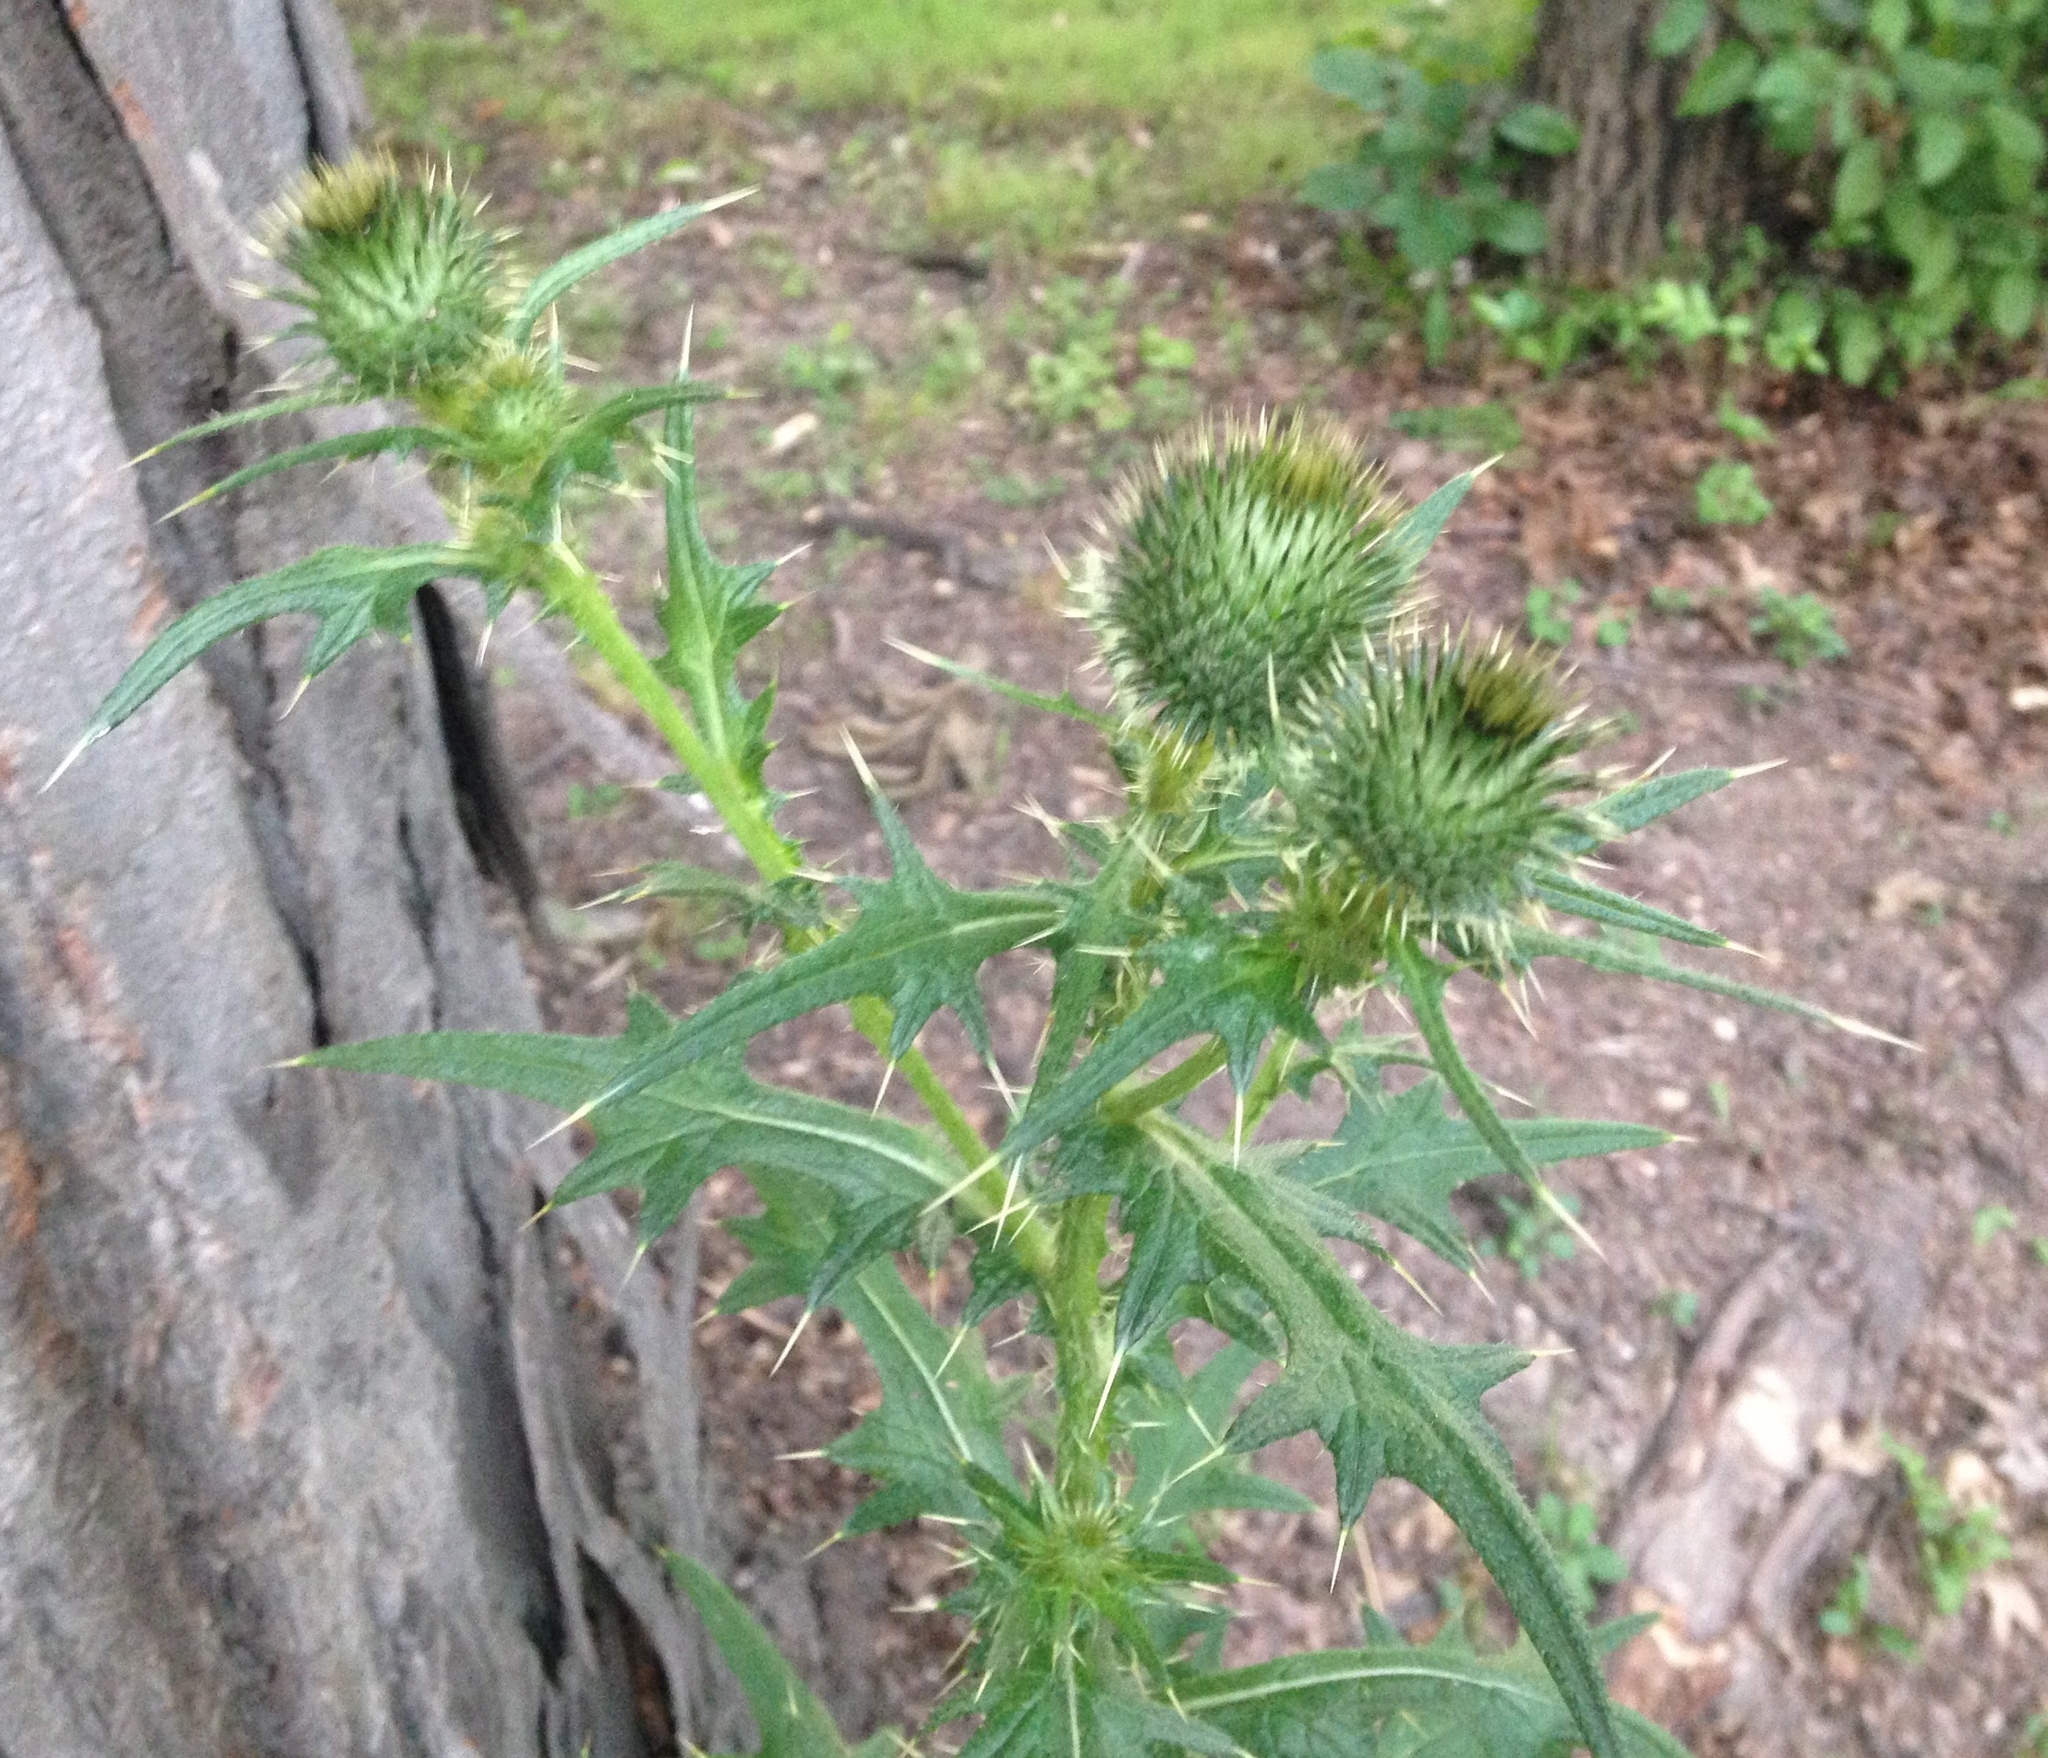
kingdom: Plantae
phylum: Tracheophyta
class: Magnoliopsida
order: Asterales
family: Asteraceae
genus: Cirsium
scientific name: Cirsium vulgare
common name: Bull thistle
